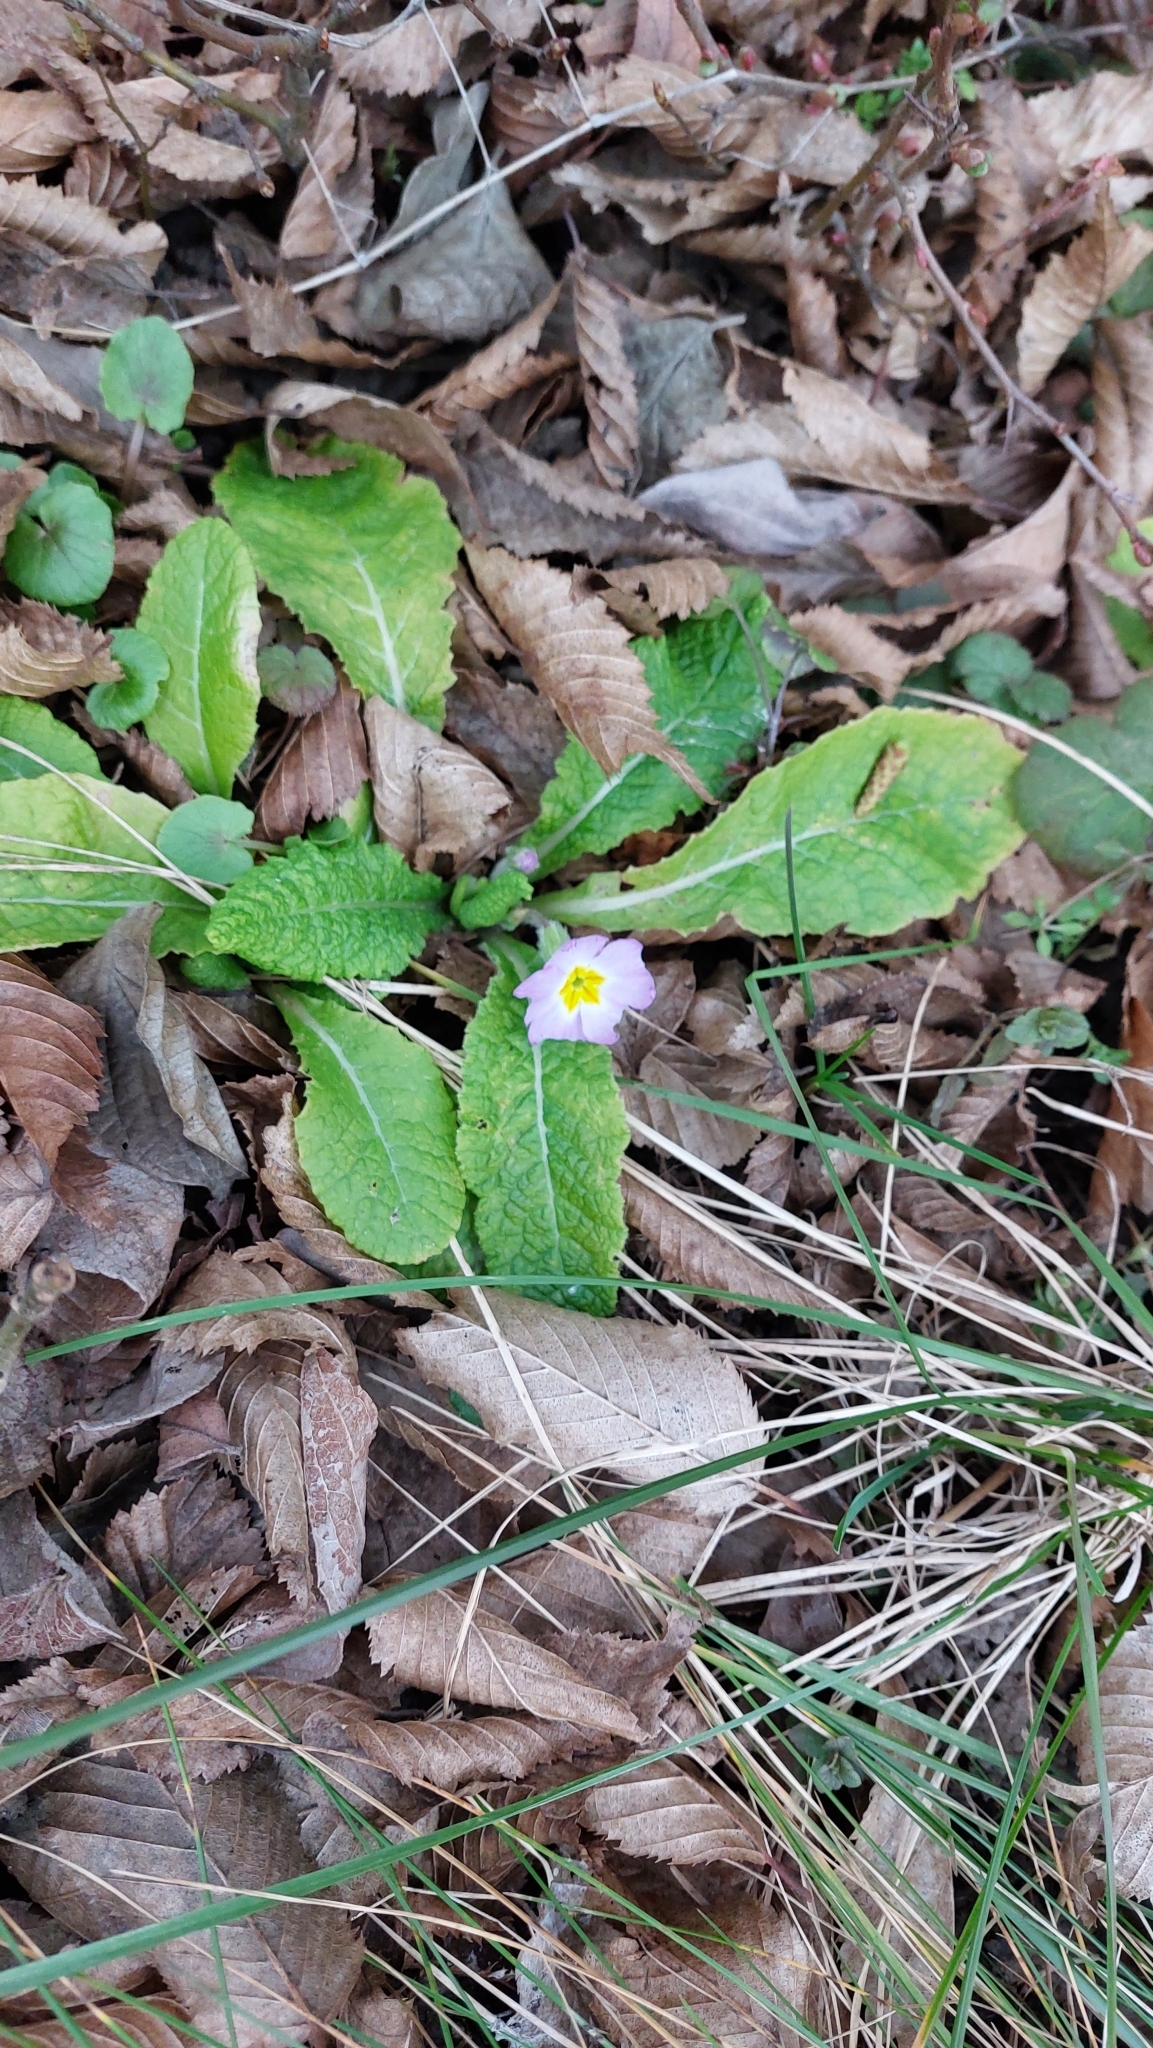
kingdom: Plantae
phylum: Tracheophyta
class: Magnoliopsida
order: Ericales
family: Primulaceae
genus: Primula
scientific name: Primula vulgaris
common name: Primrose
